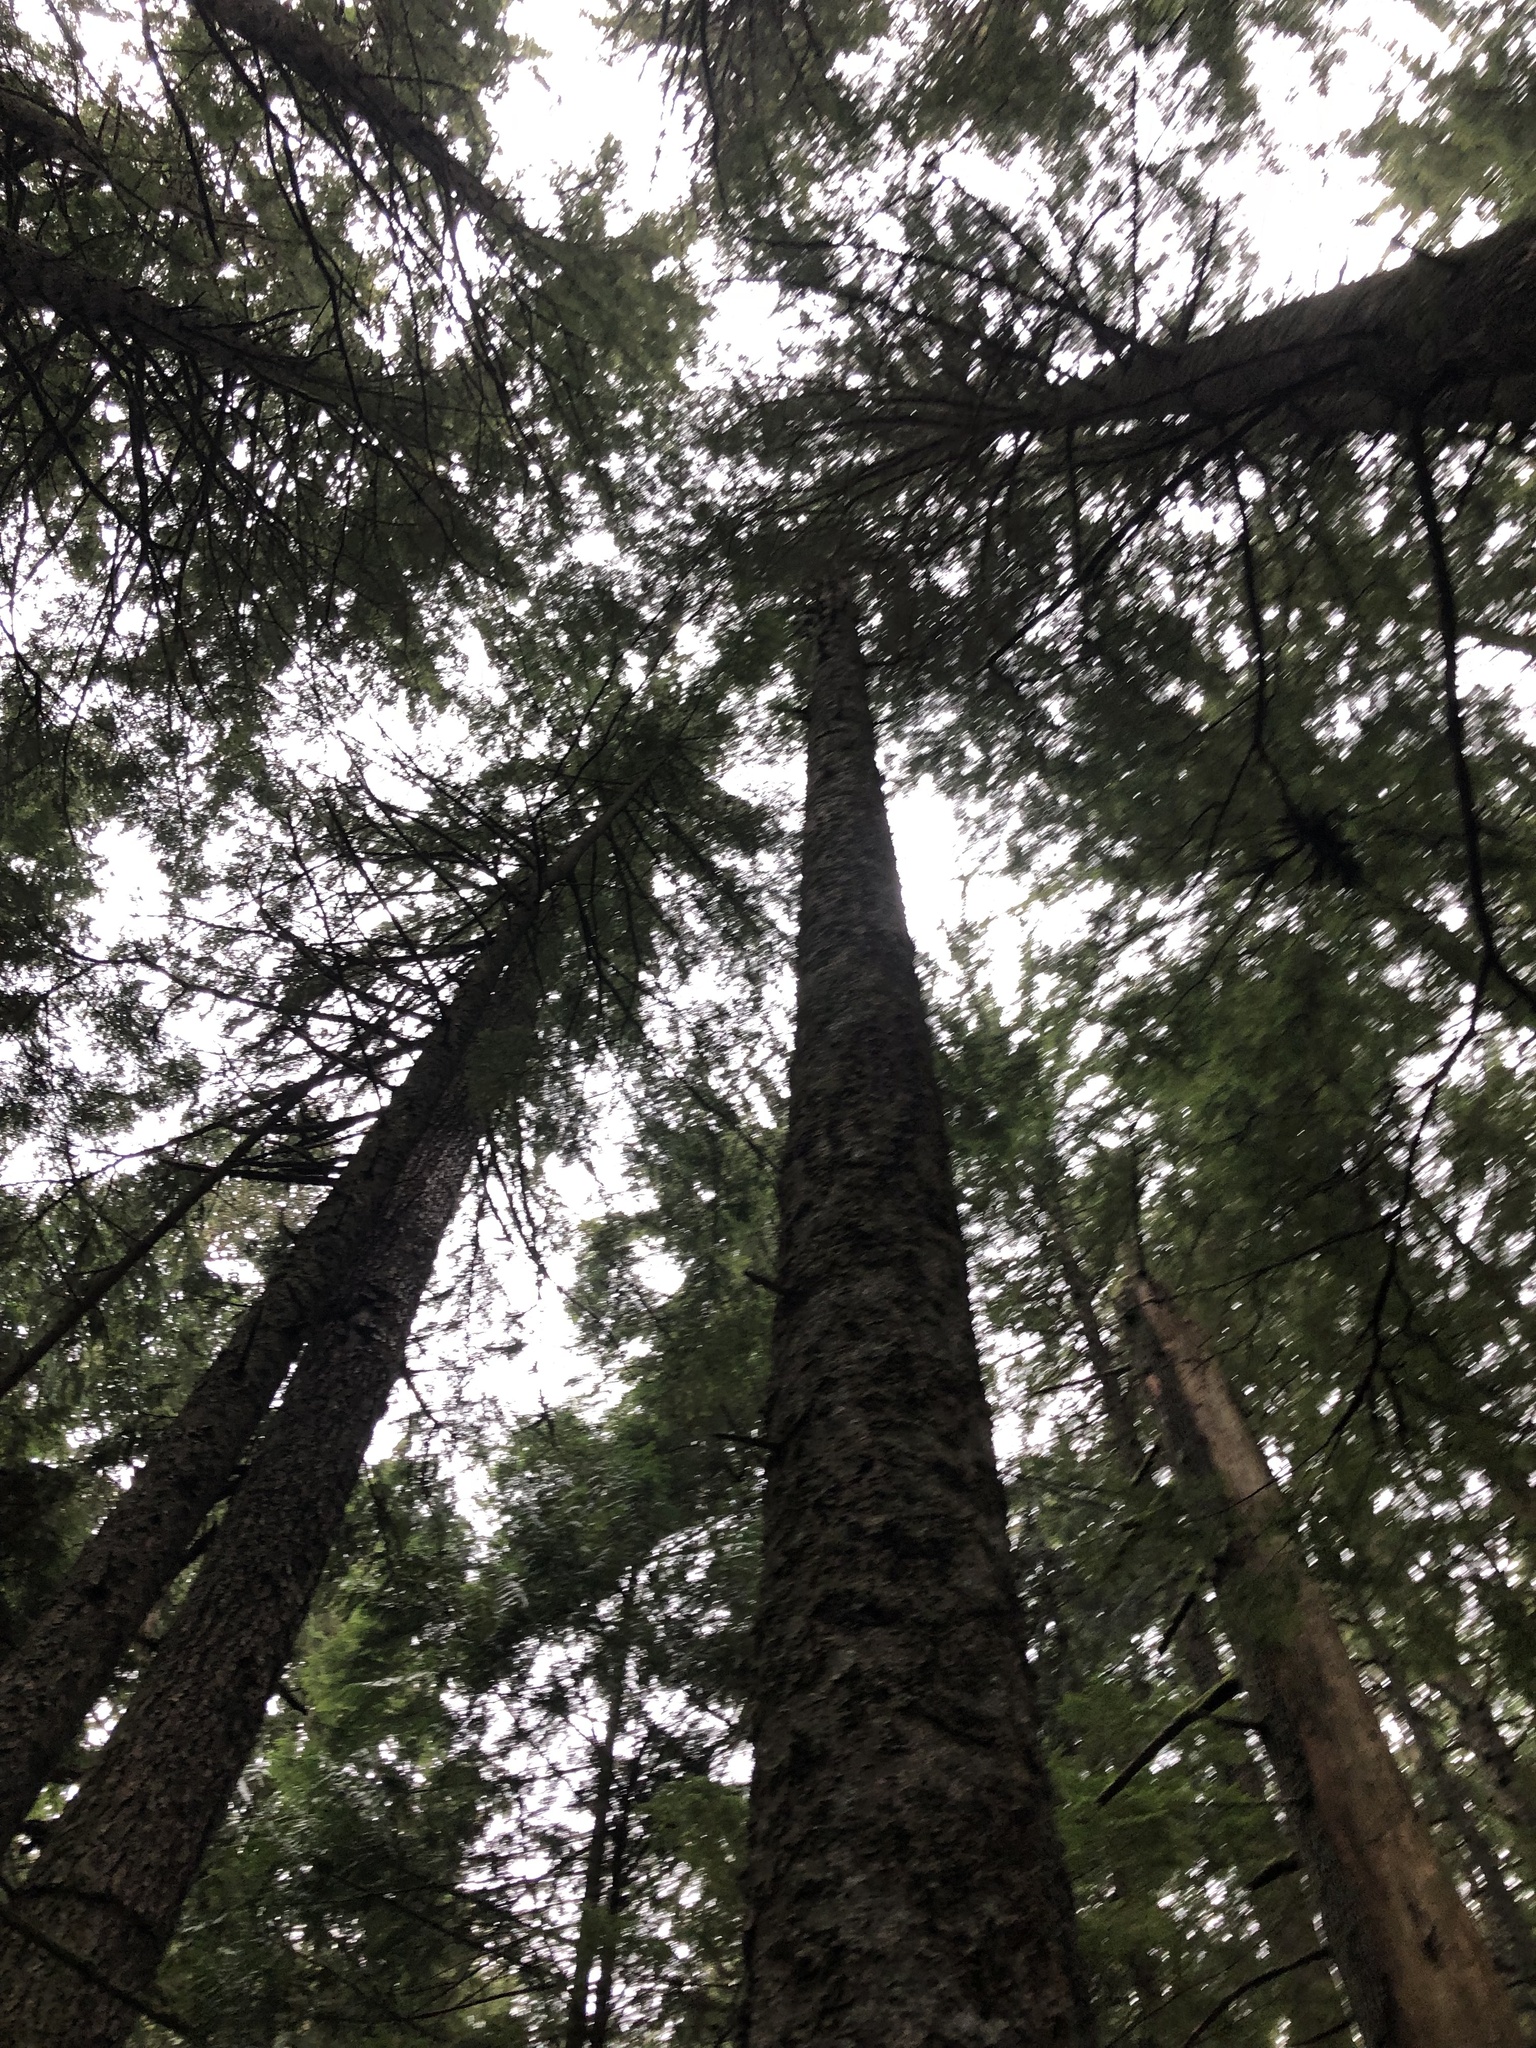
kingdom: Plantae
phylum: Tracheophyta
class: Pinopsida
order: Pinales
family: Pinaceae
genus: Tsuga
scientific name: Tsuga heterophylla
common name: Western hemlock
